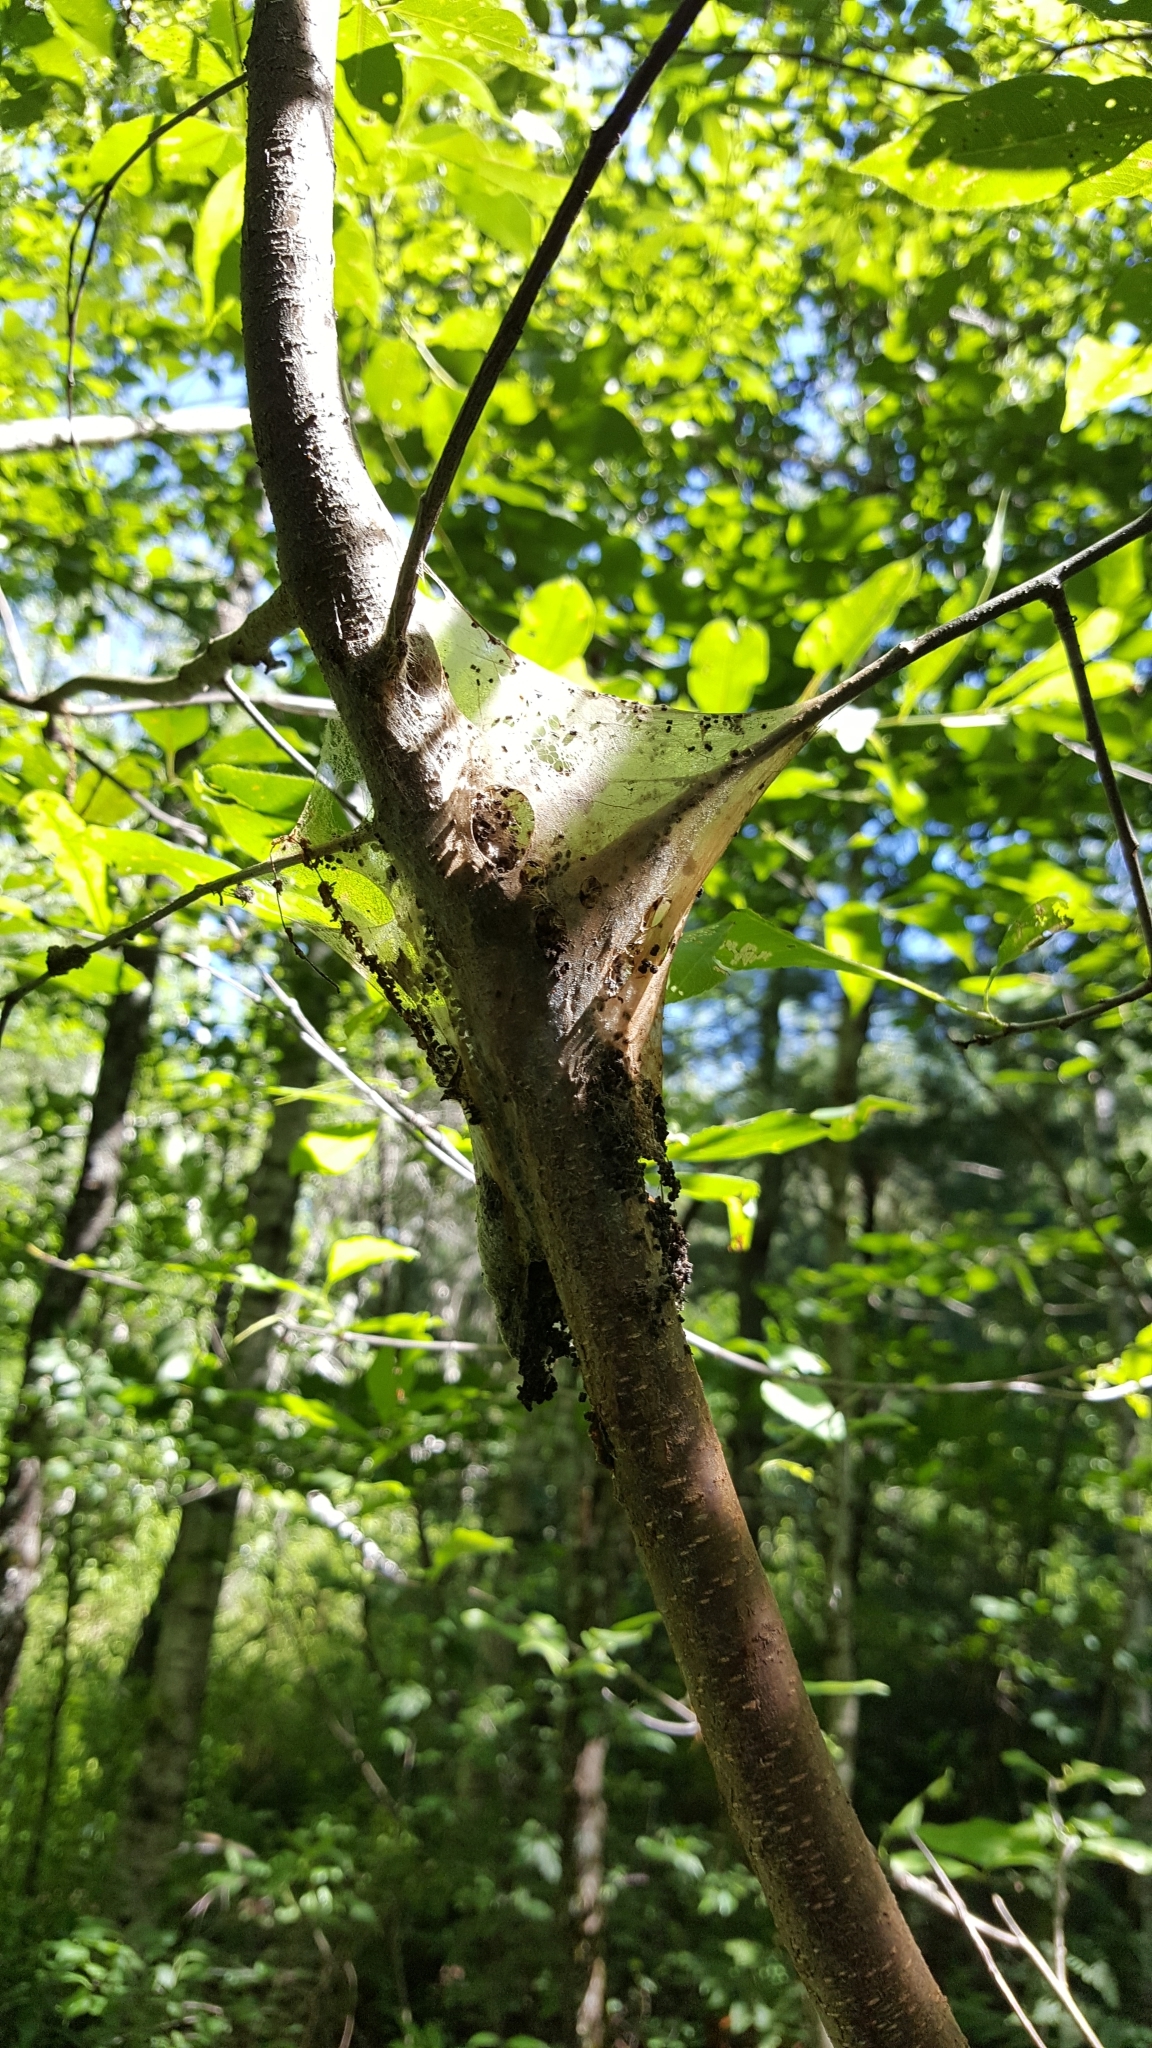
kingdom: Animalia
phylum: Arthropoda
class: Insecta
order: Lepidoptera
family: Lasiocampidae
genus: Malacosoma
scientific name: Malacosoma americana
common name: Eastern tent caterpillar moth
